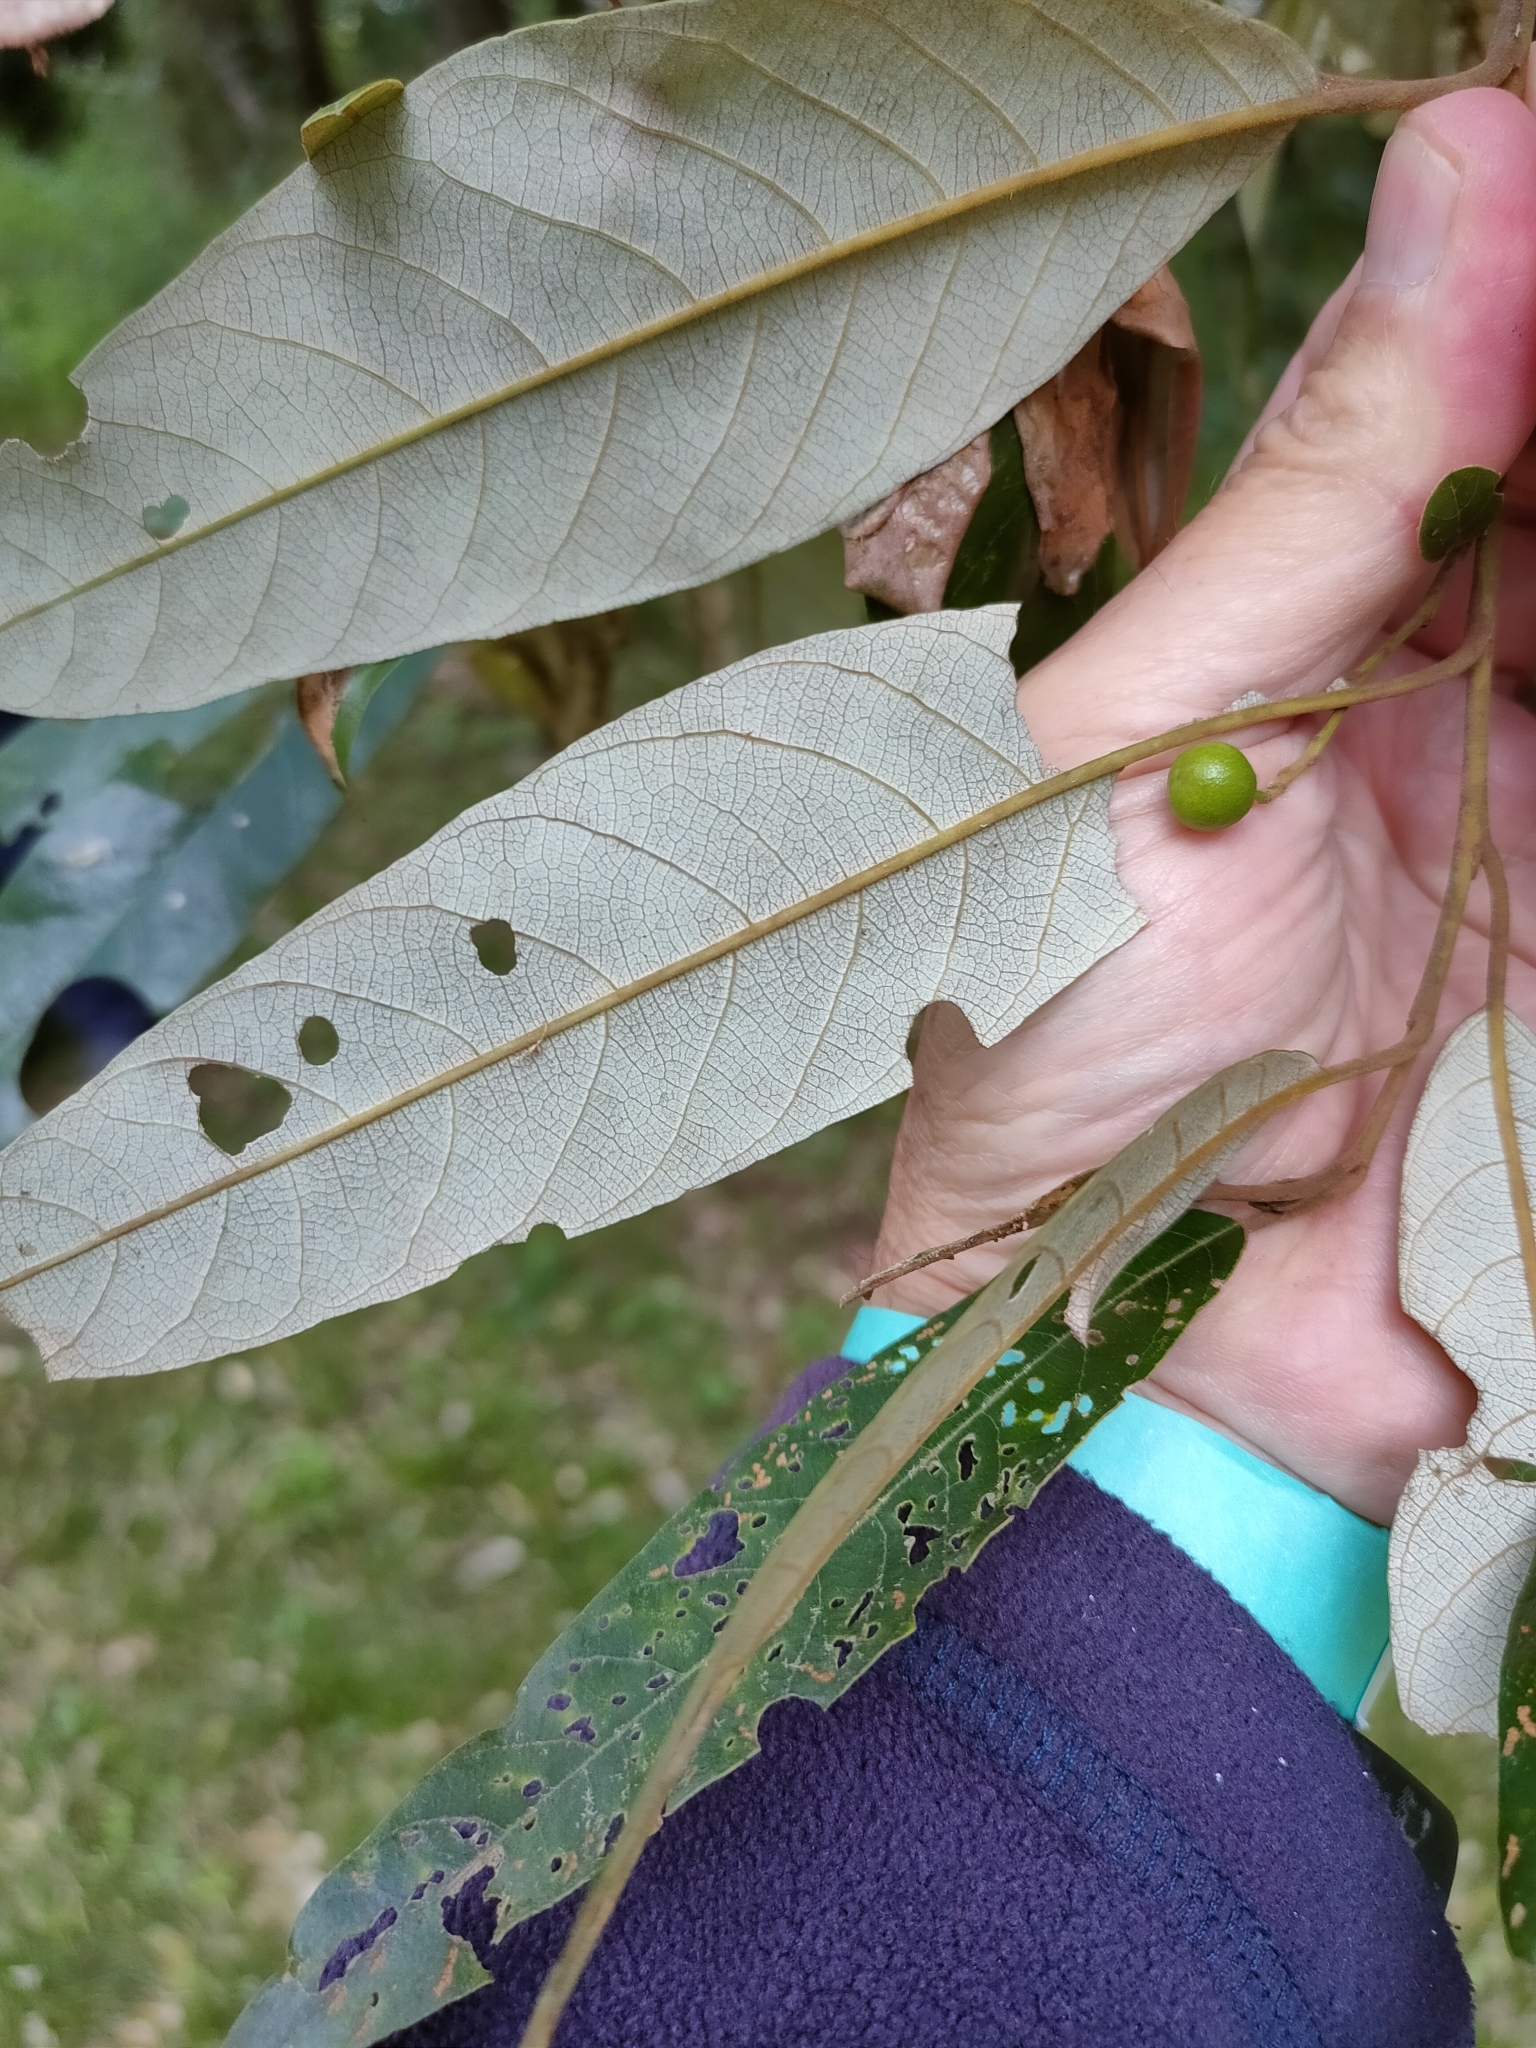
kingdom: Plantae
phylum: Tracheophyta
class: Magnoliopsida
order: Rosales
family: Rhamnaceae
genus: Alphitonia
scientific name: Alphitonia excelsa
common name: Red ash
